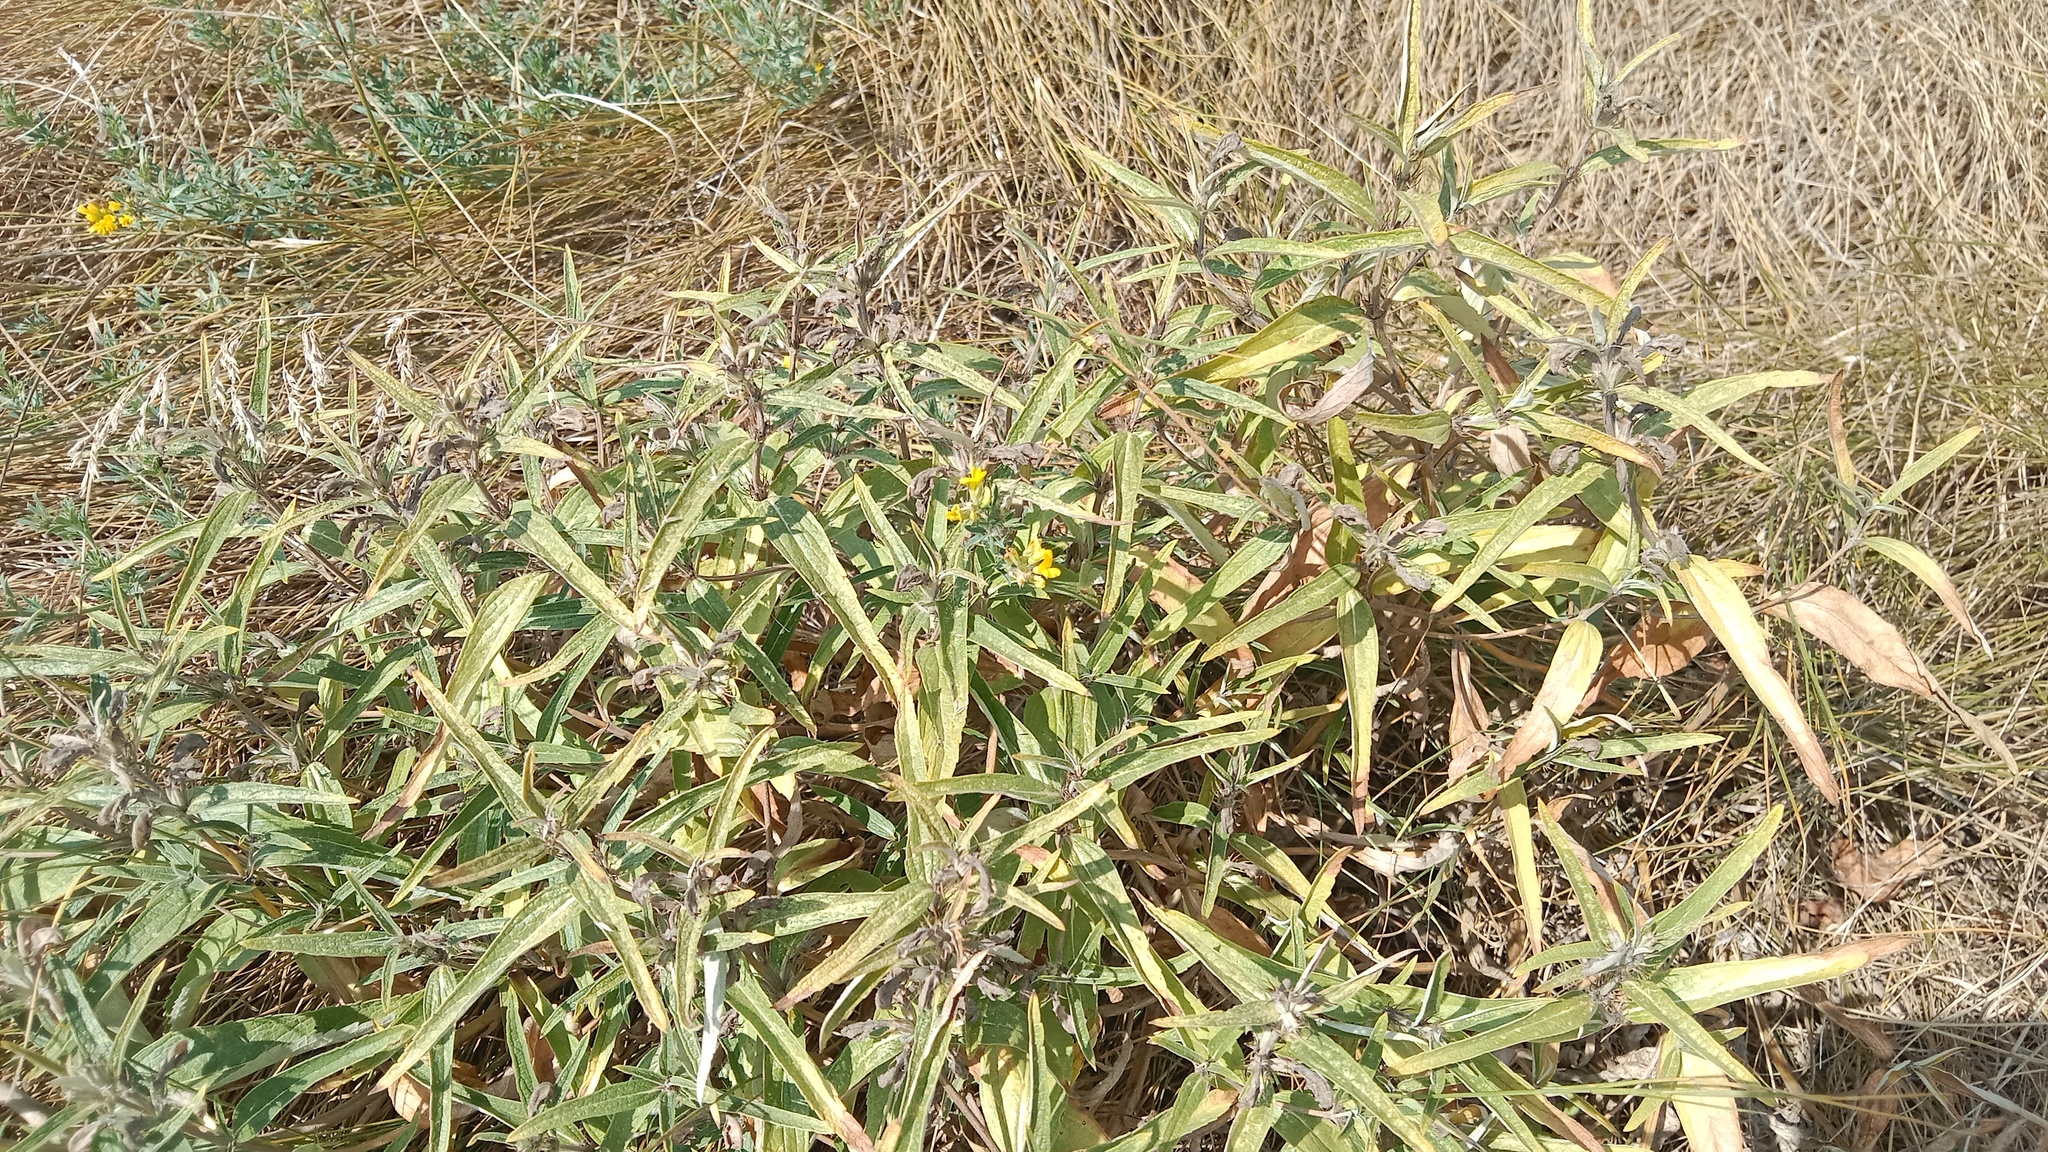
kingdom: Plantae
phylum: Tracheophyta
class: Magnoliopsida
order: Lamiales
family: Lamiaceae
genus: Phlomis
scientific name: Phlomis herba-venti
